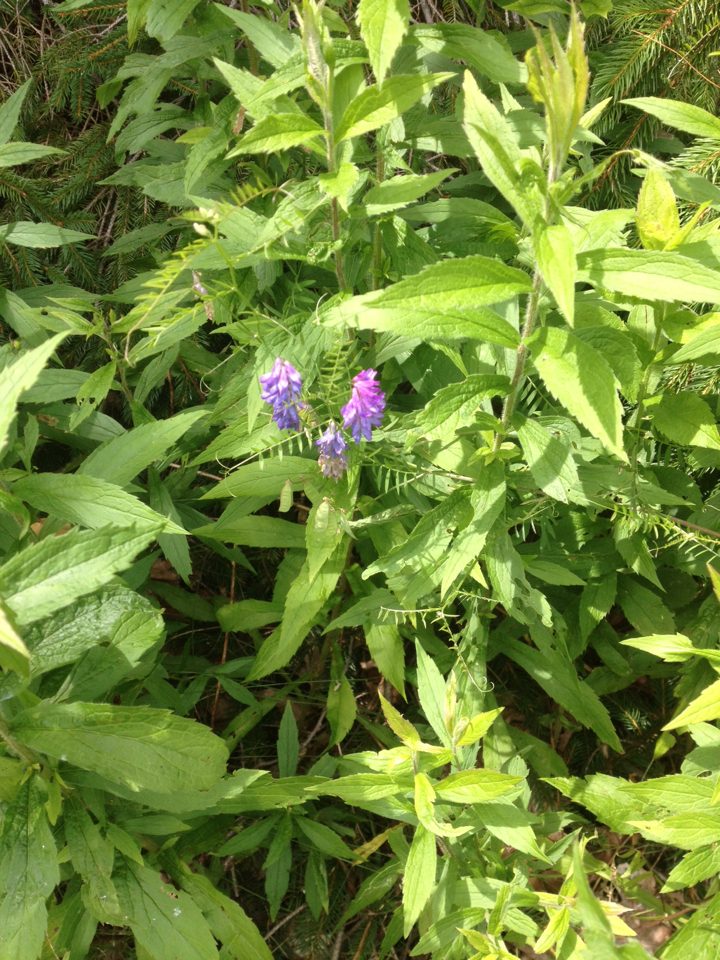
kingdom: Plantae
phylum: Tracheophyta
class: Magnoliopsida
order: Fabales
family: Fabaceae
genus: Vicia
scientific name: Vicia cracca
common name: Bird vetch
